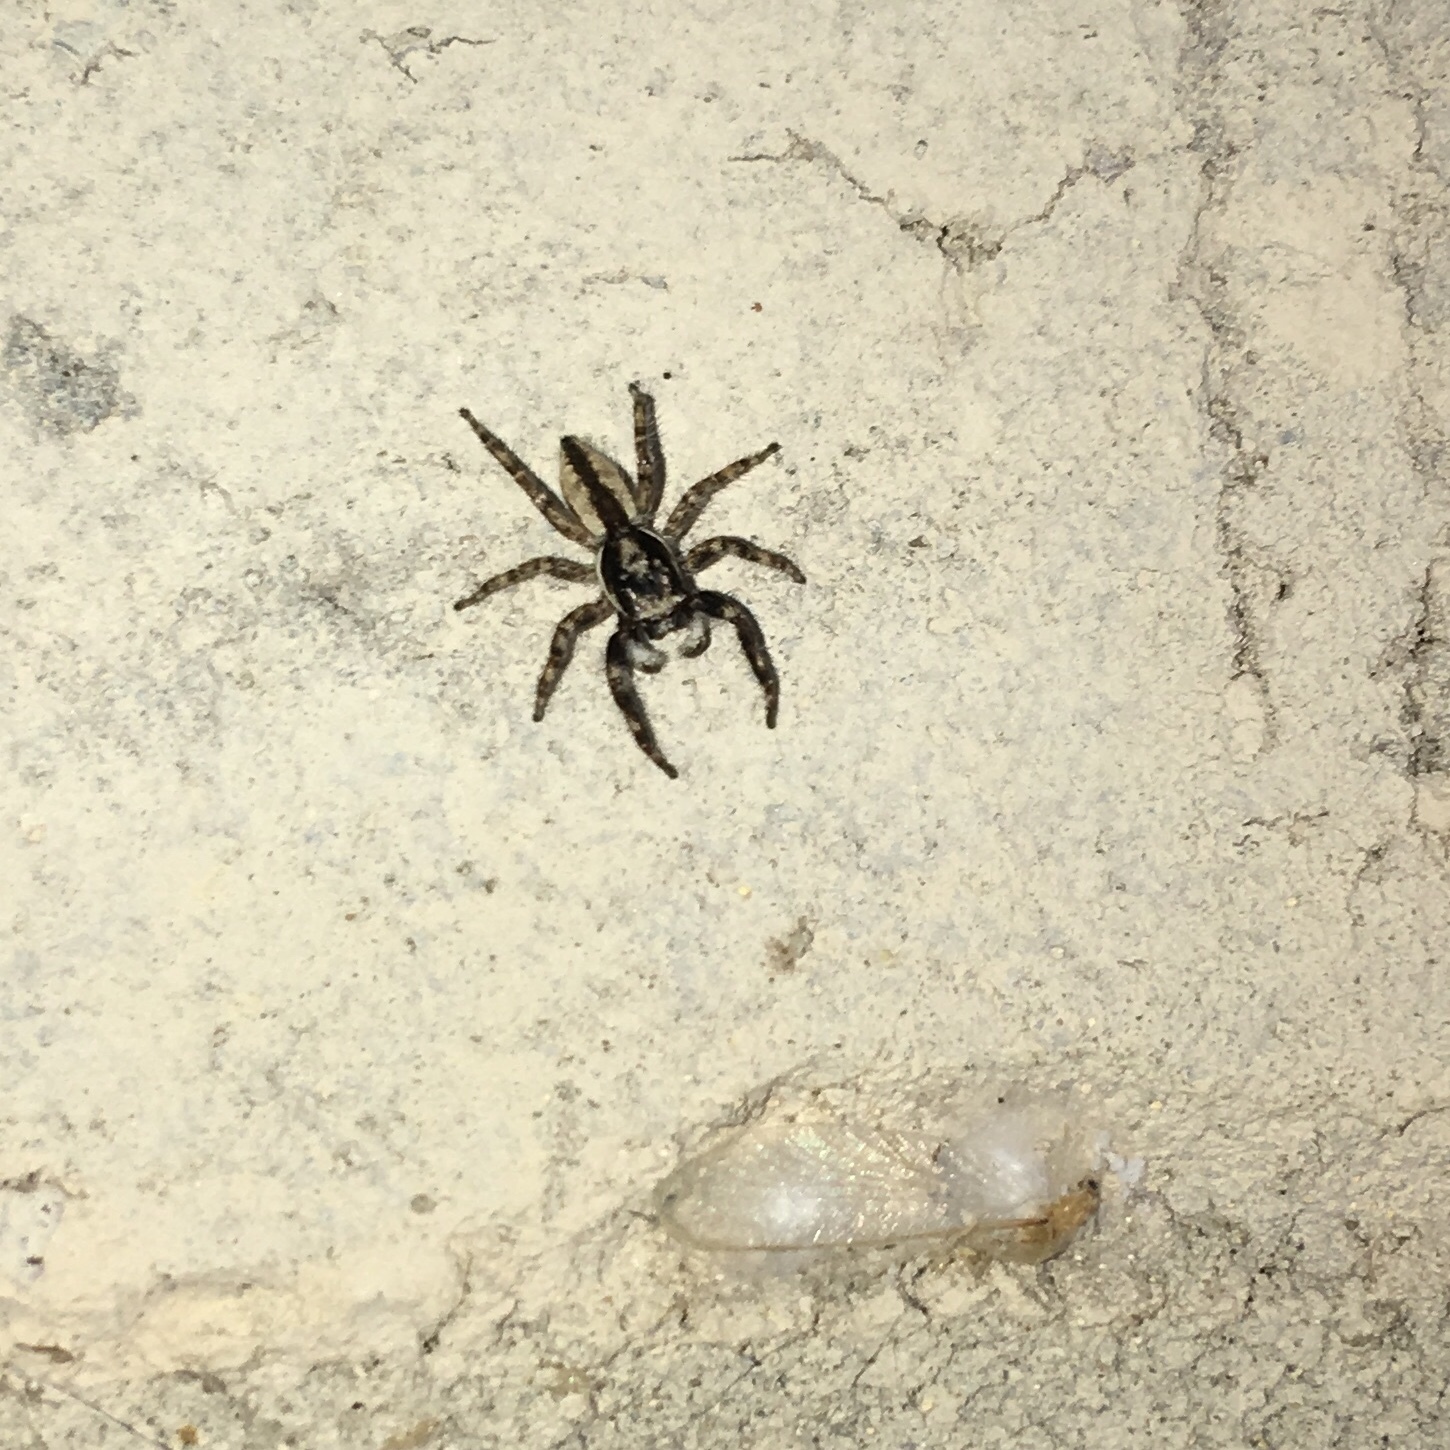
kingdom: Animalia
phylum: Arthropoda
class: Arachnida
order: Araneae
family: Salticidae
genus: Menemerus
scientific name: Menemerus bivittatus
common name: Gray wall jumper
